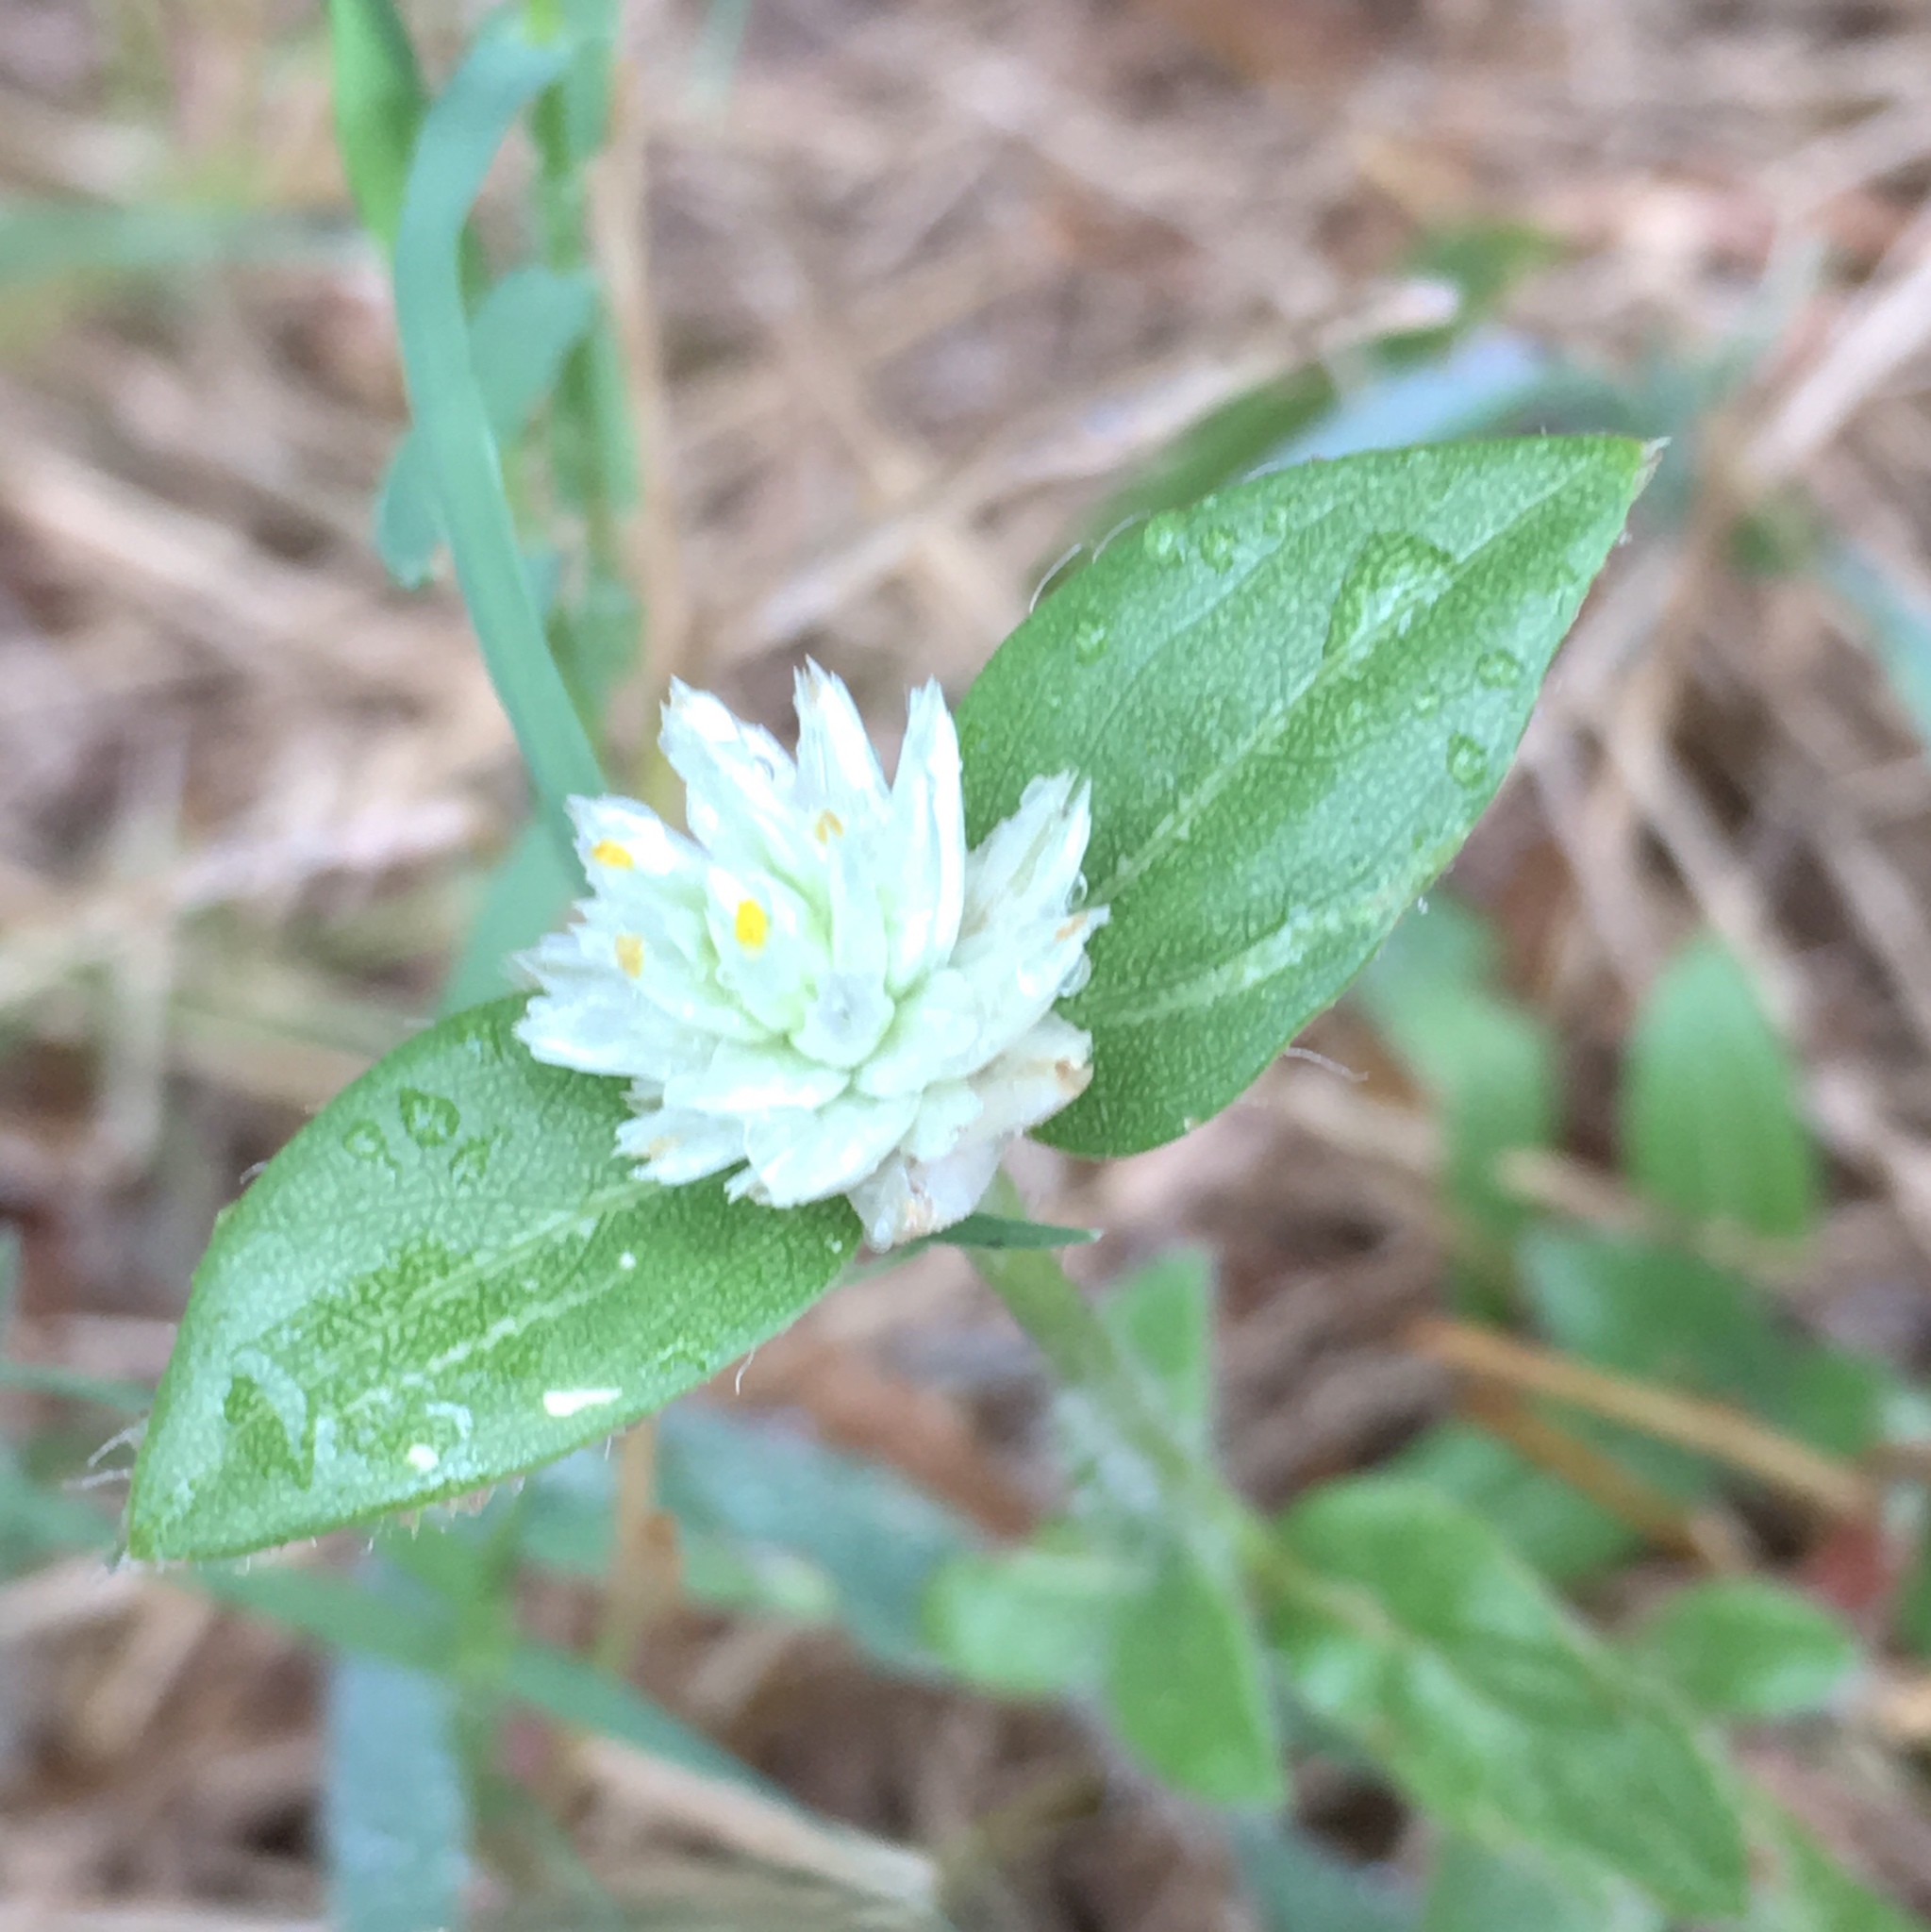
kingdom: Plantae
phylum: Tracheophyta
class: Magnoliopsida
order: Caryophyllales
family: Amaranthaceae
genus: Gomphrena
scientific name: Gomphrena serrata
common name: Arrasa con todo
